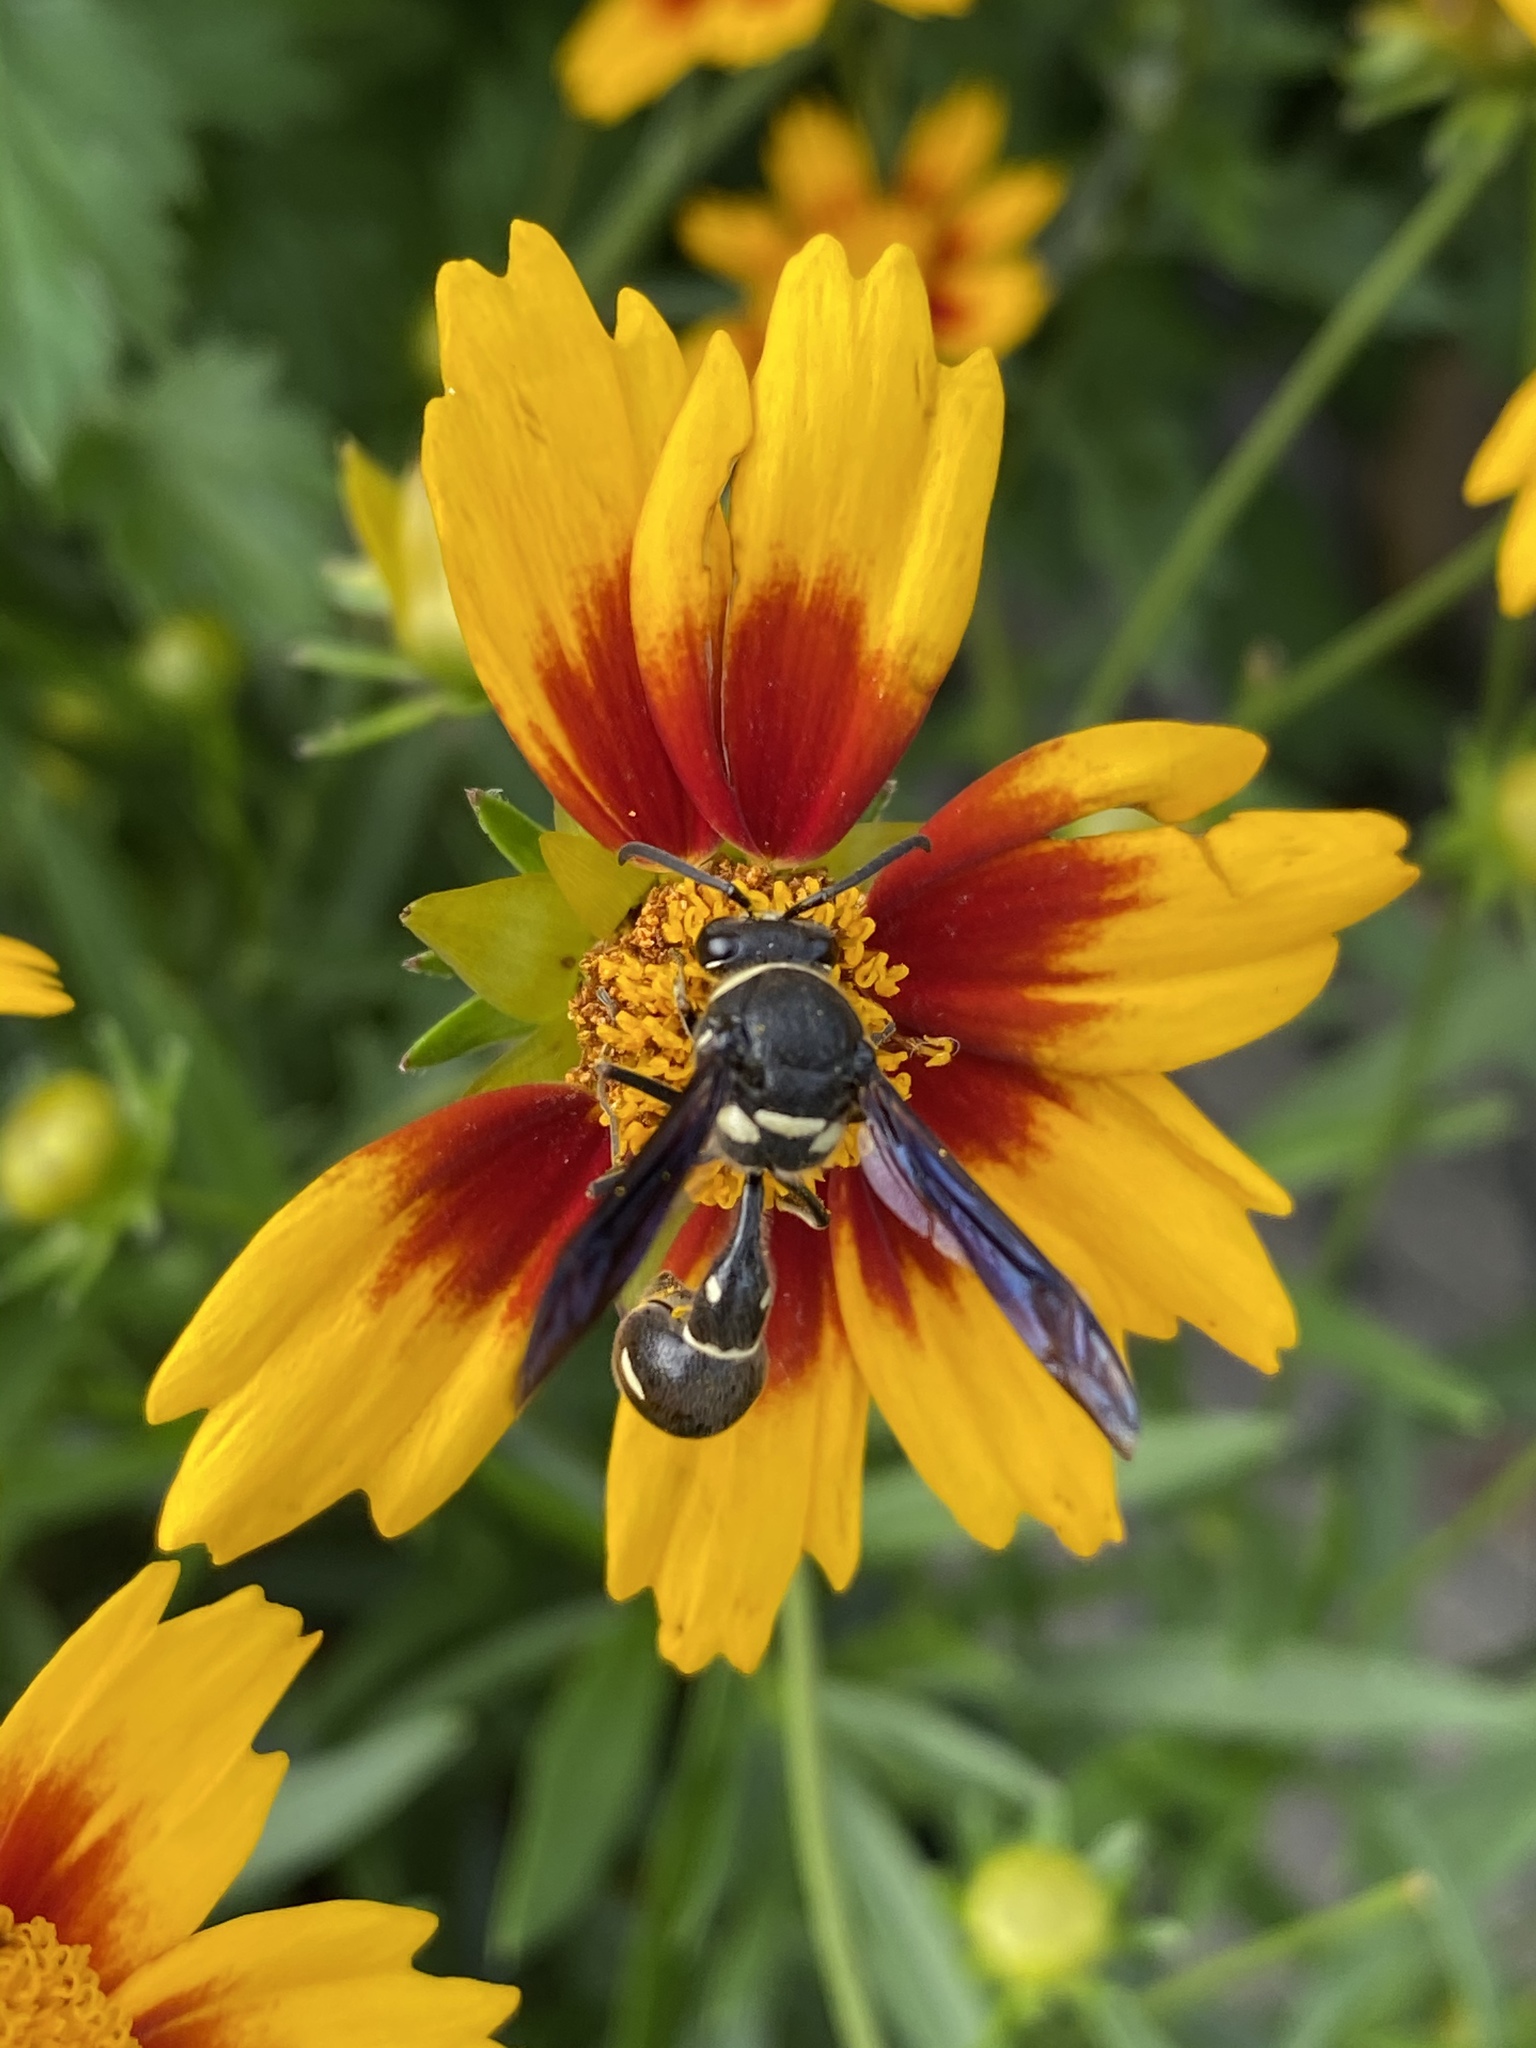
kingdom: Animalia
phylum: Arthropoda
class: Insecta
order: Hymenoptera
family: Vespidae
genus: Eumenes
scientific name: Eumenes fraternus
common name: Fraternal potter wasp
